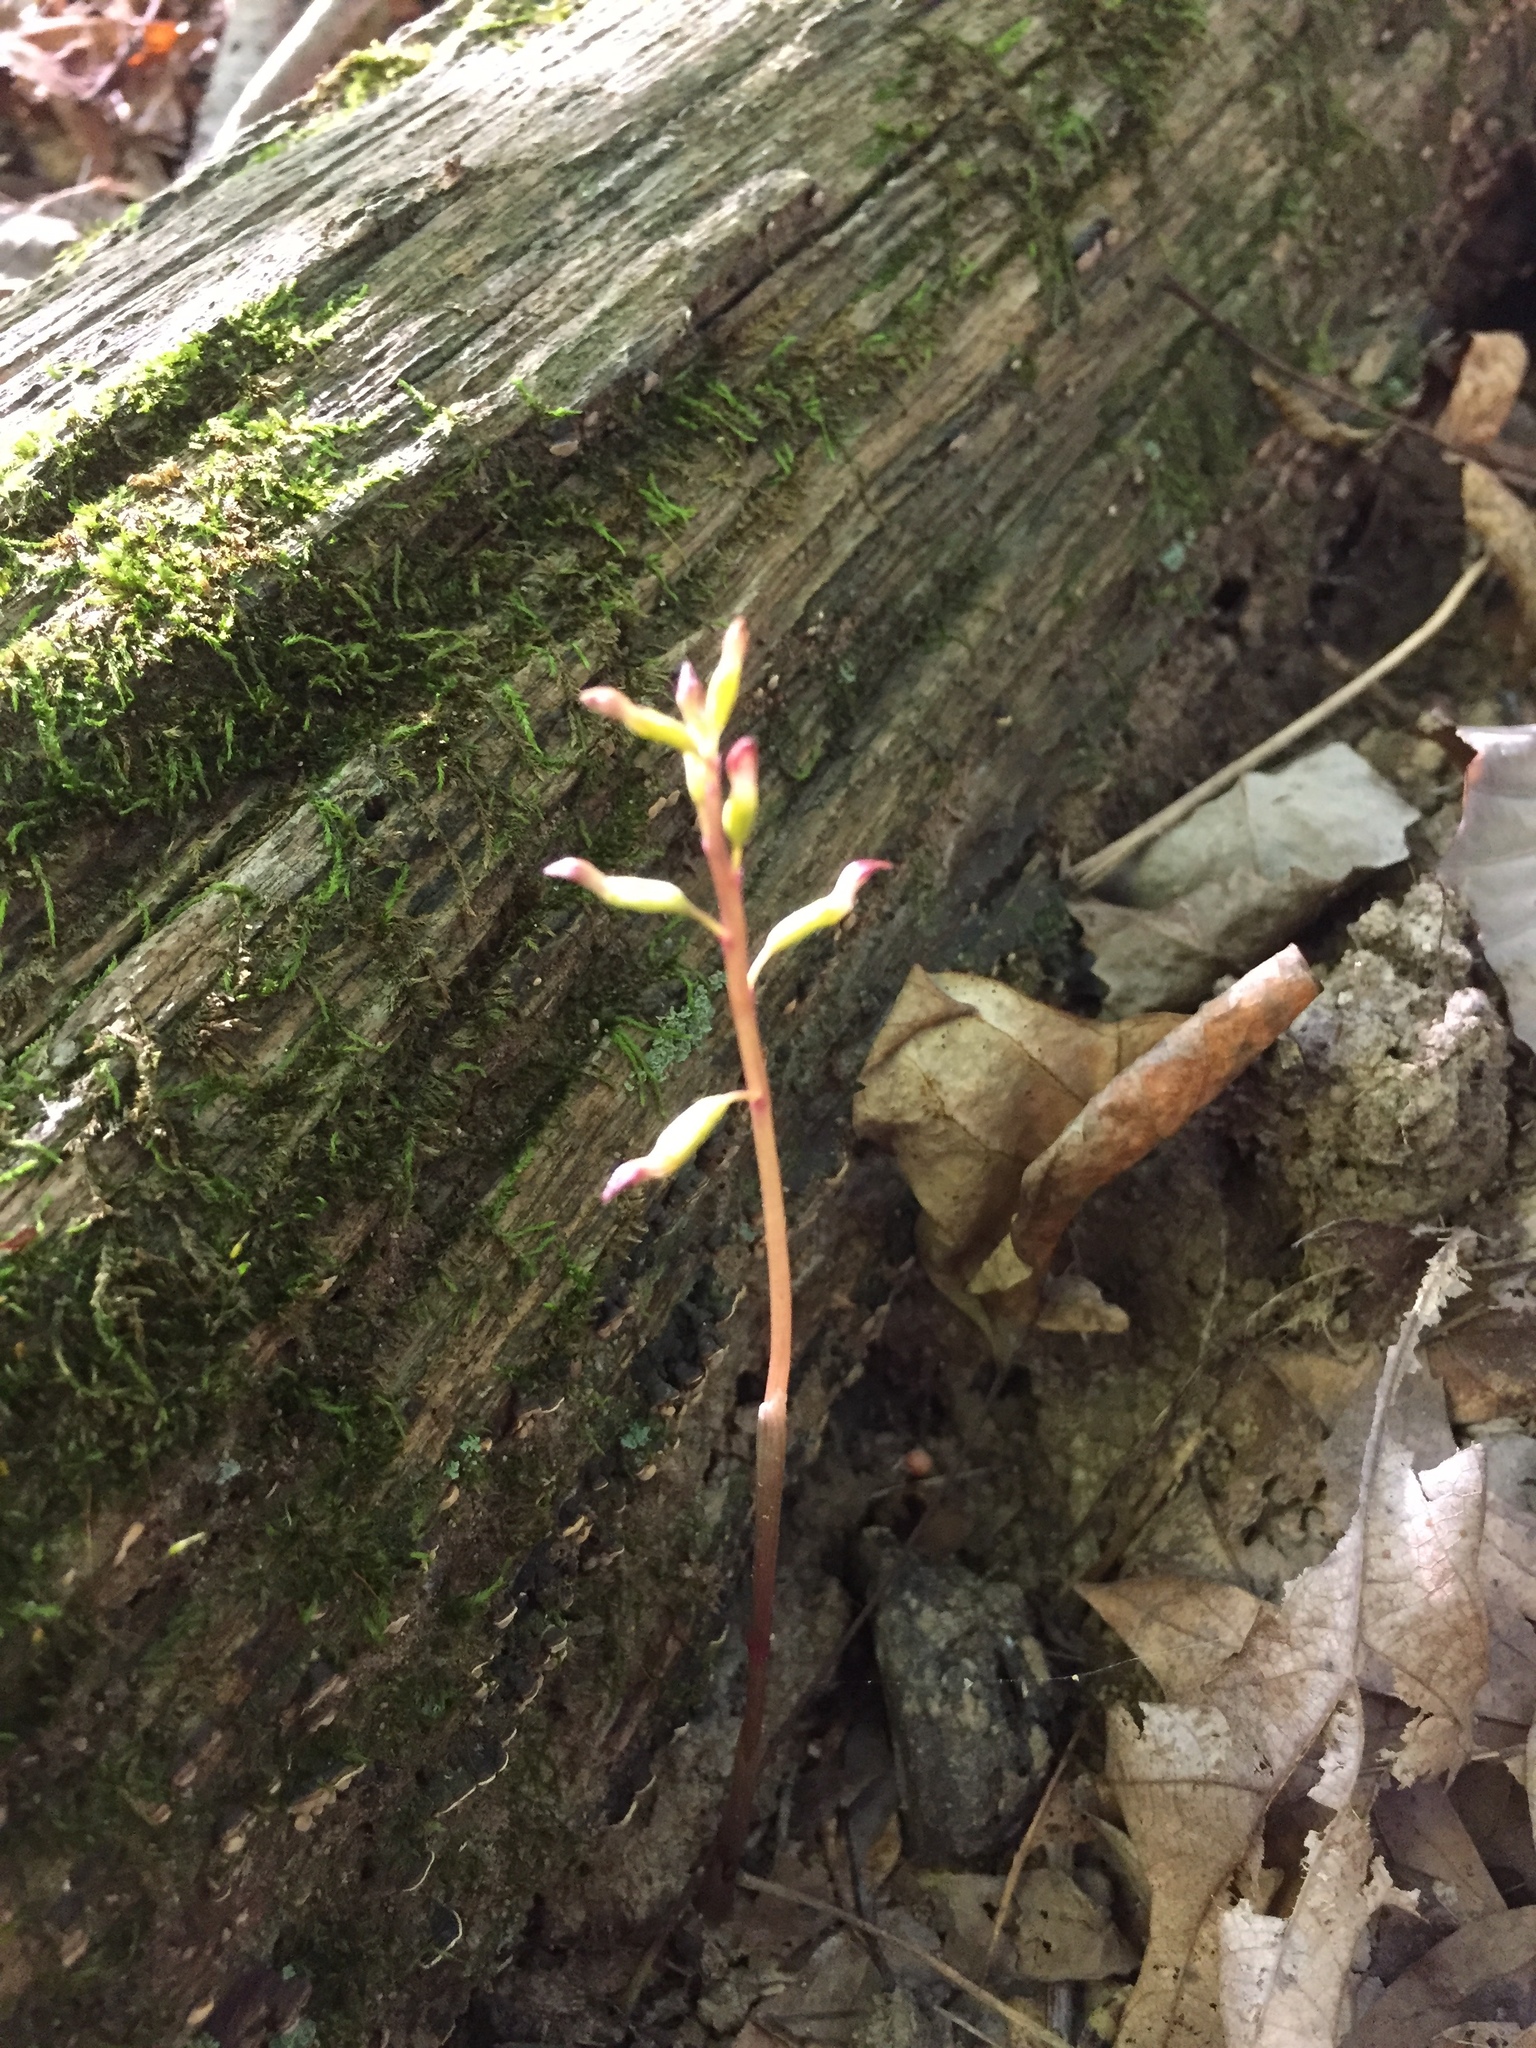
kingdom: Plantae
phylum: Tracheophyta
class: Liliopsida
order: Asparagales
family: Orchidaceae
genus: Corallorhiza
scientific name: Corallorhiza odontorhiza
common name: Autumn coralroot
